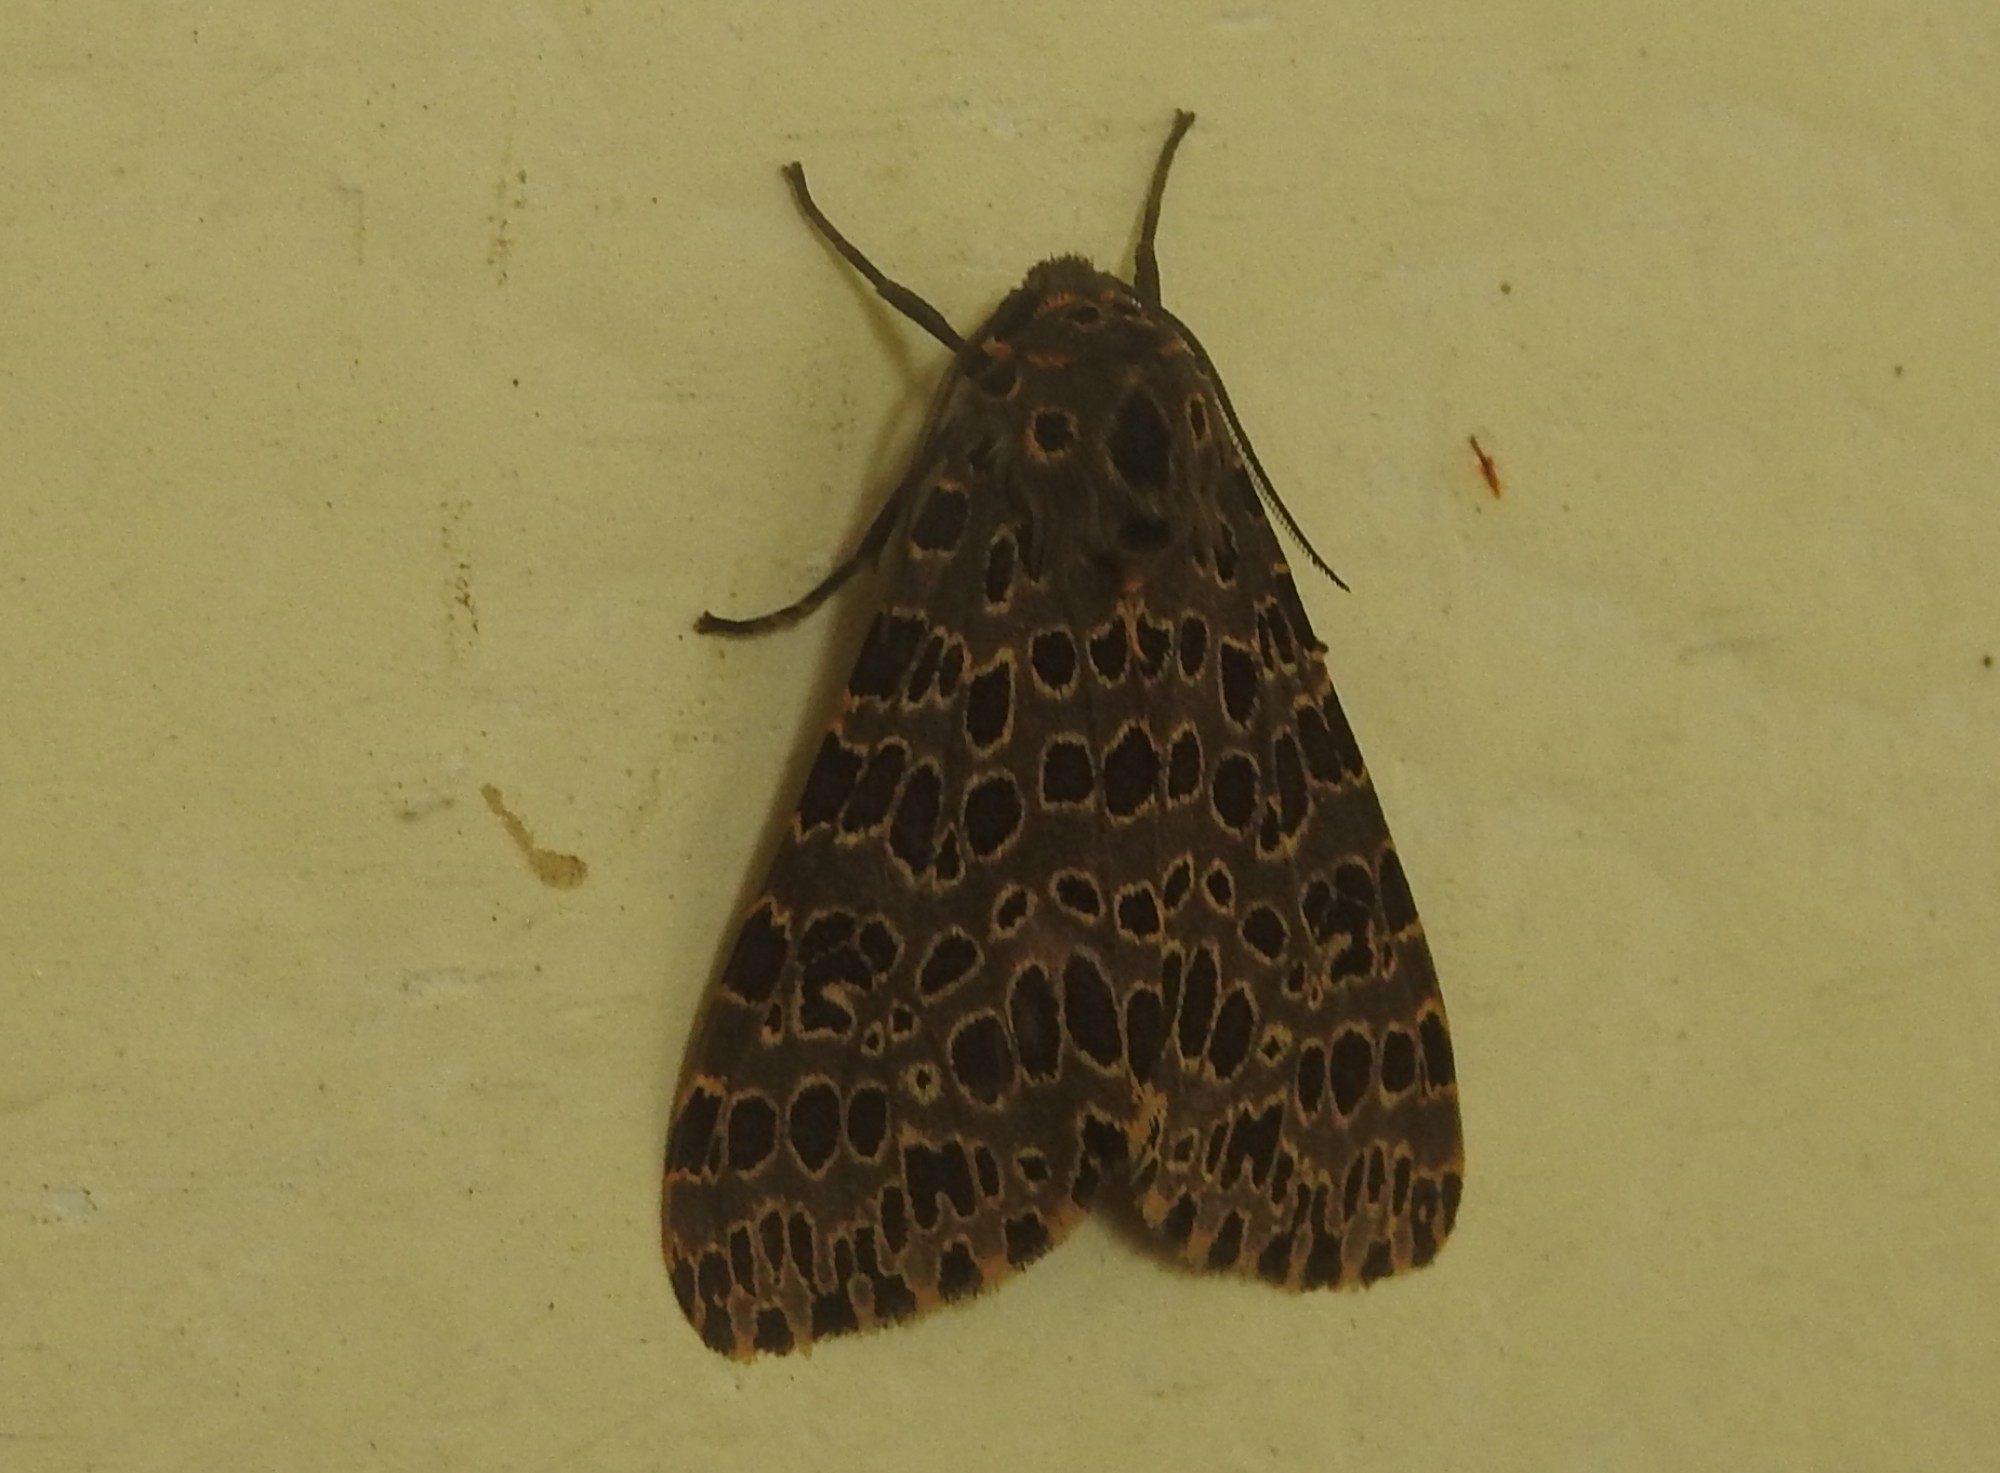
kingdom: Animalia
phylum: Arthropoda
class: Insecta
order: Lepidoptera
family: Erebidae
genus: Olepa
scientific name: Olepa ricini
